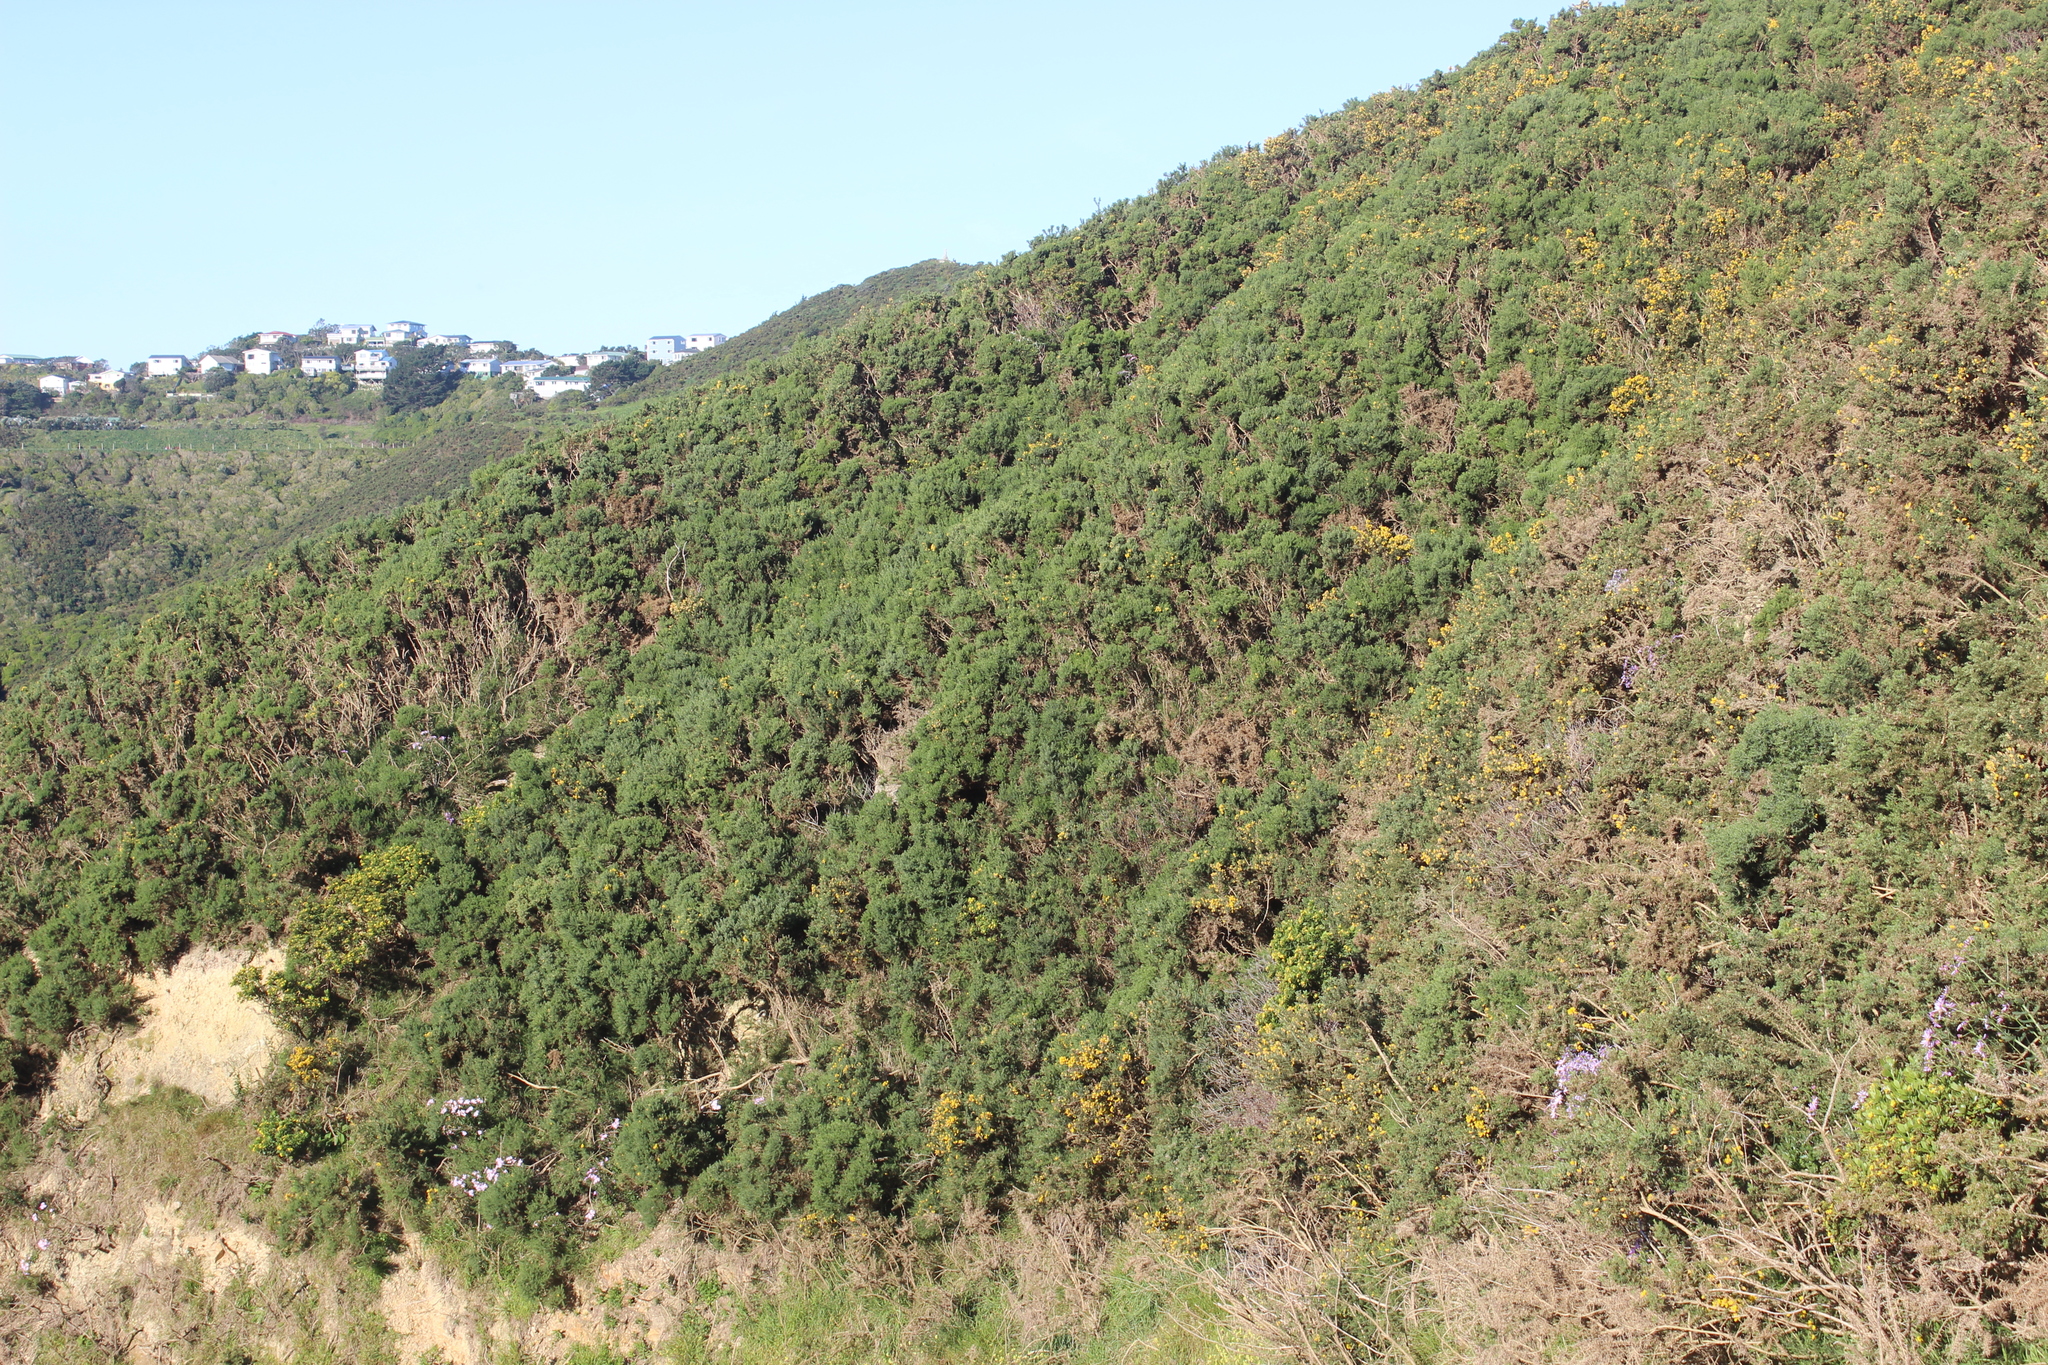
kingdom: Plantae
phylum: Tracheophyta
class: Magnoliopsida
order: Fabales
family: Fabaceae
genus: Ulex
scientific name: Ulex europaeus
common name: Common gorse
